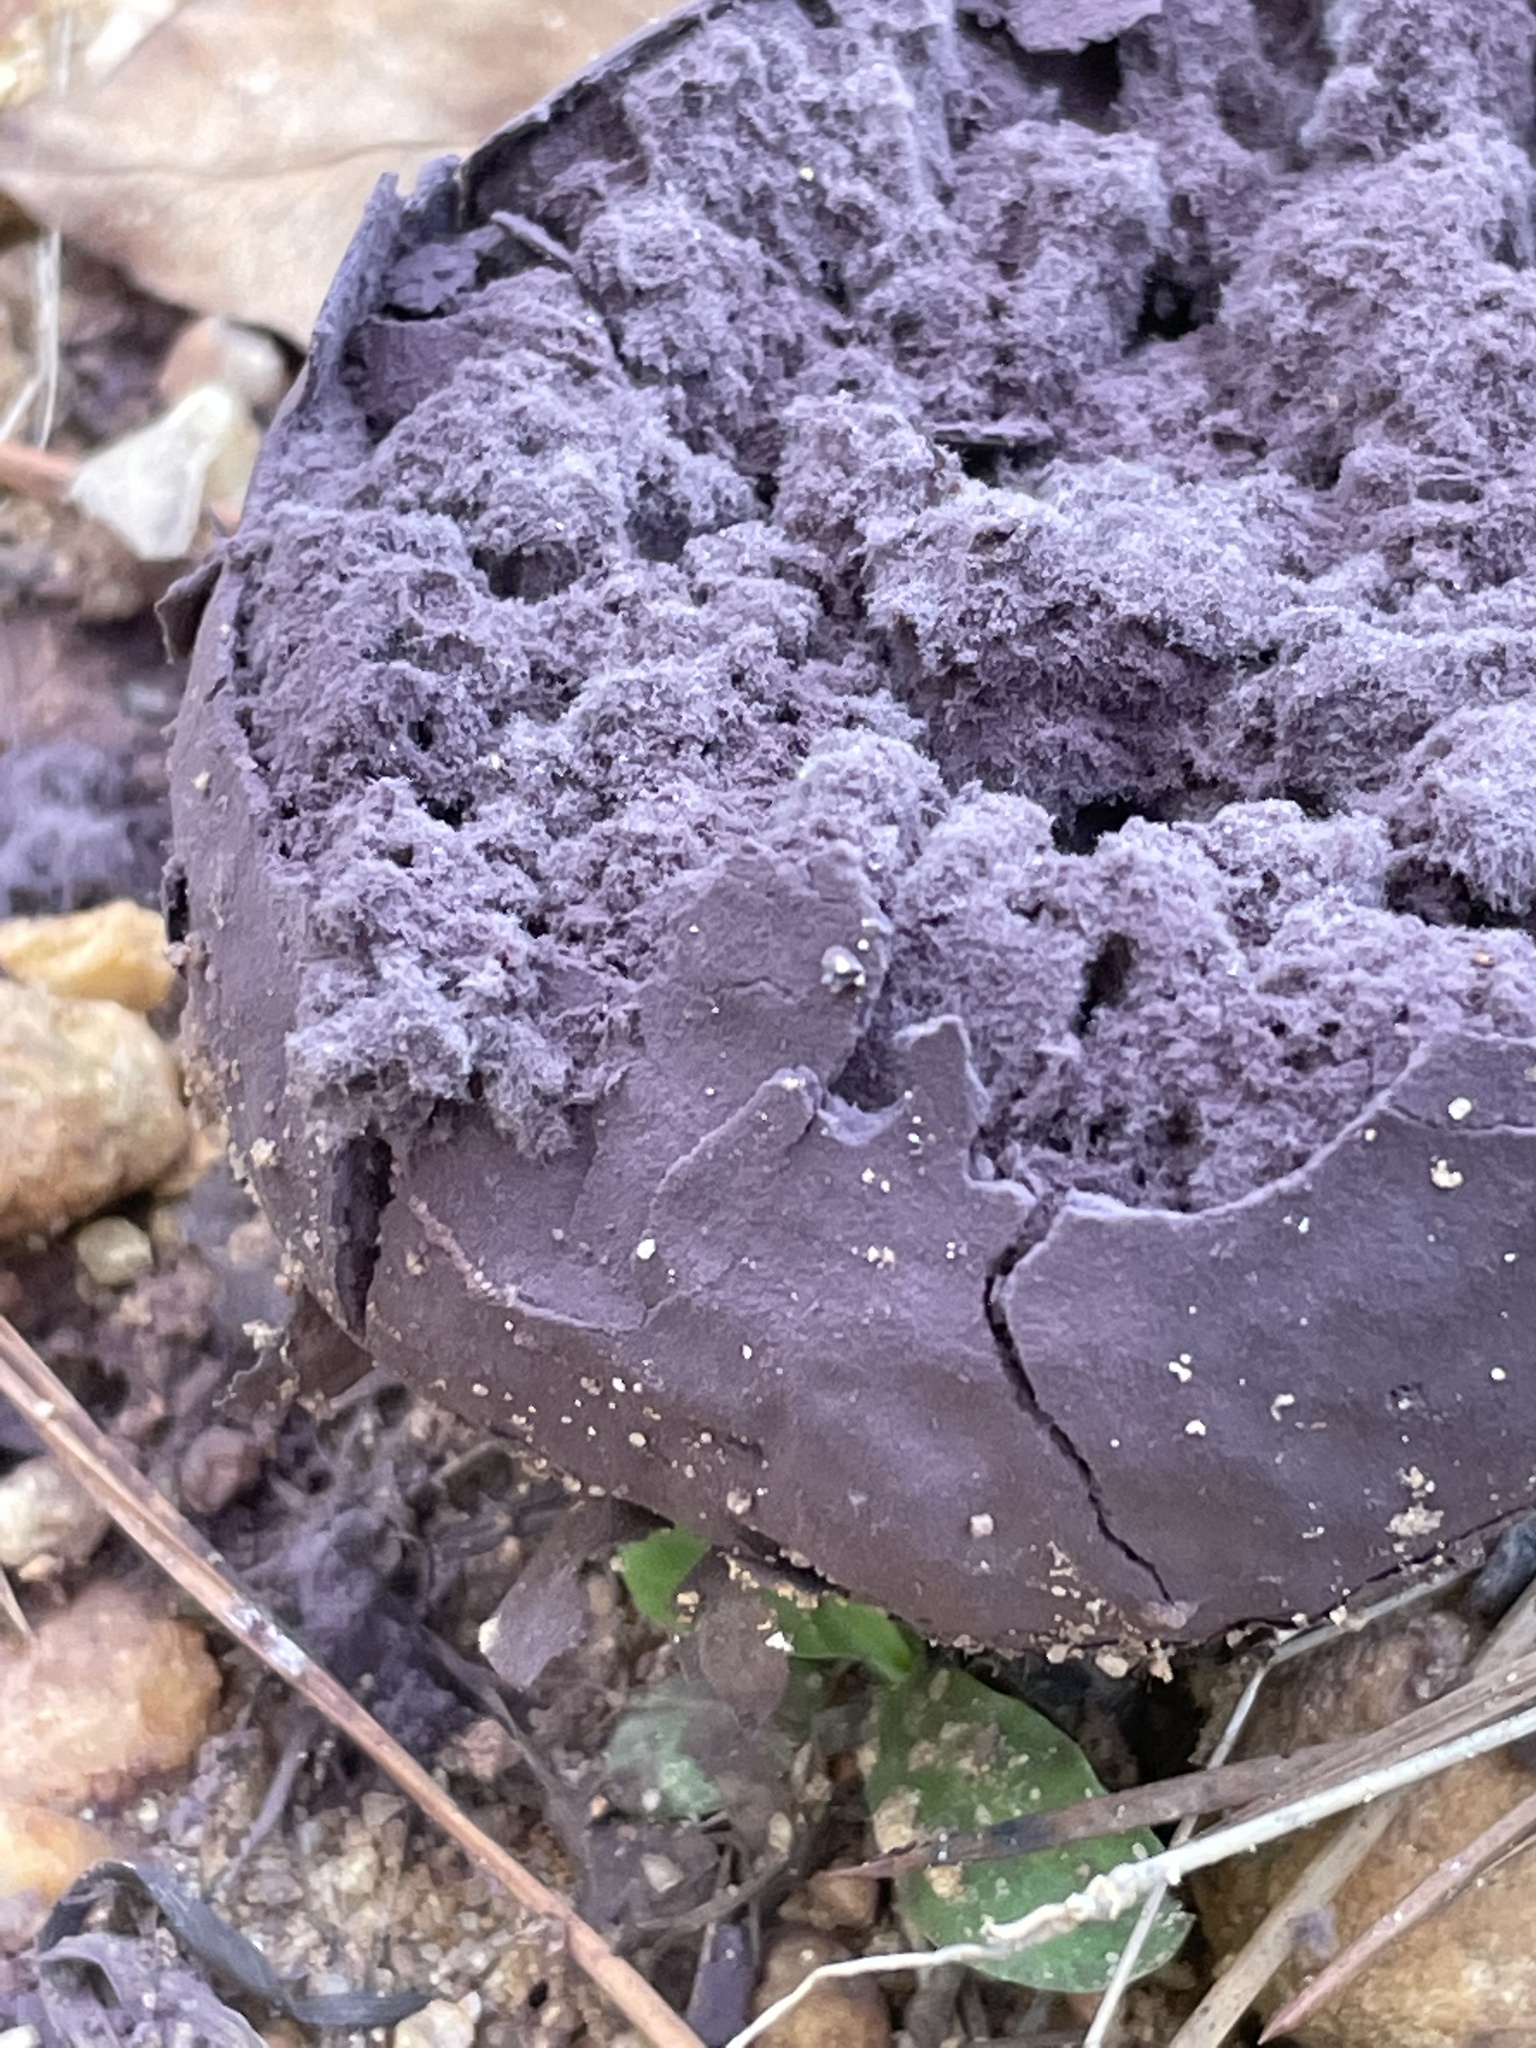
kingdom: Fungi
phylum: Basidiomycota
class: Agaricomycetes
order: Agaricales
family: Lycoperdaceae
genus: Calvatia
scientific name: Calvatia cyathiformis
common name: Purple-spored puffball
